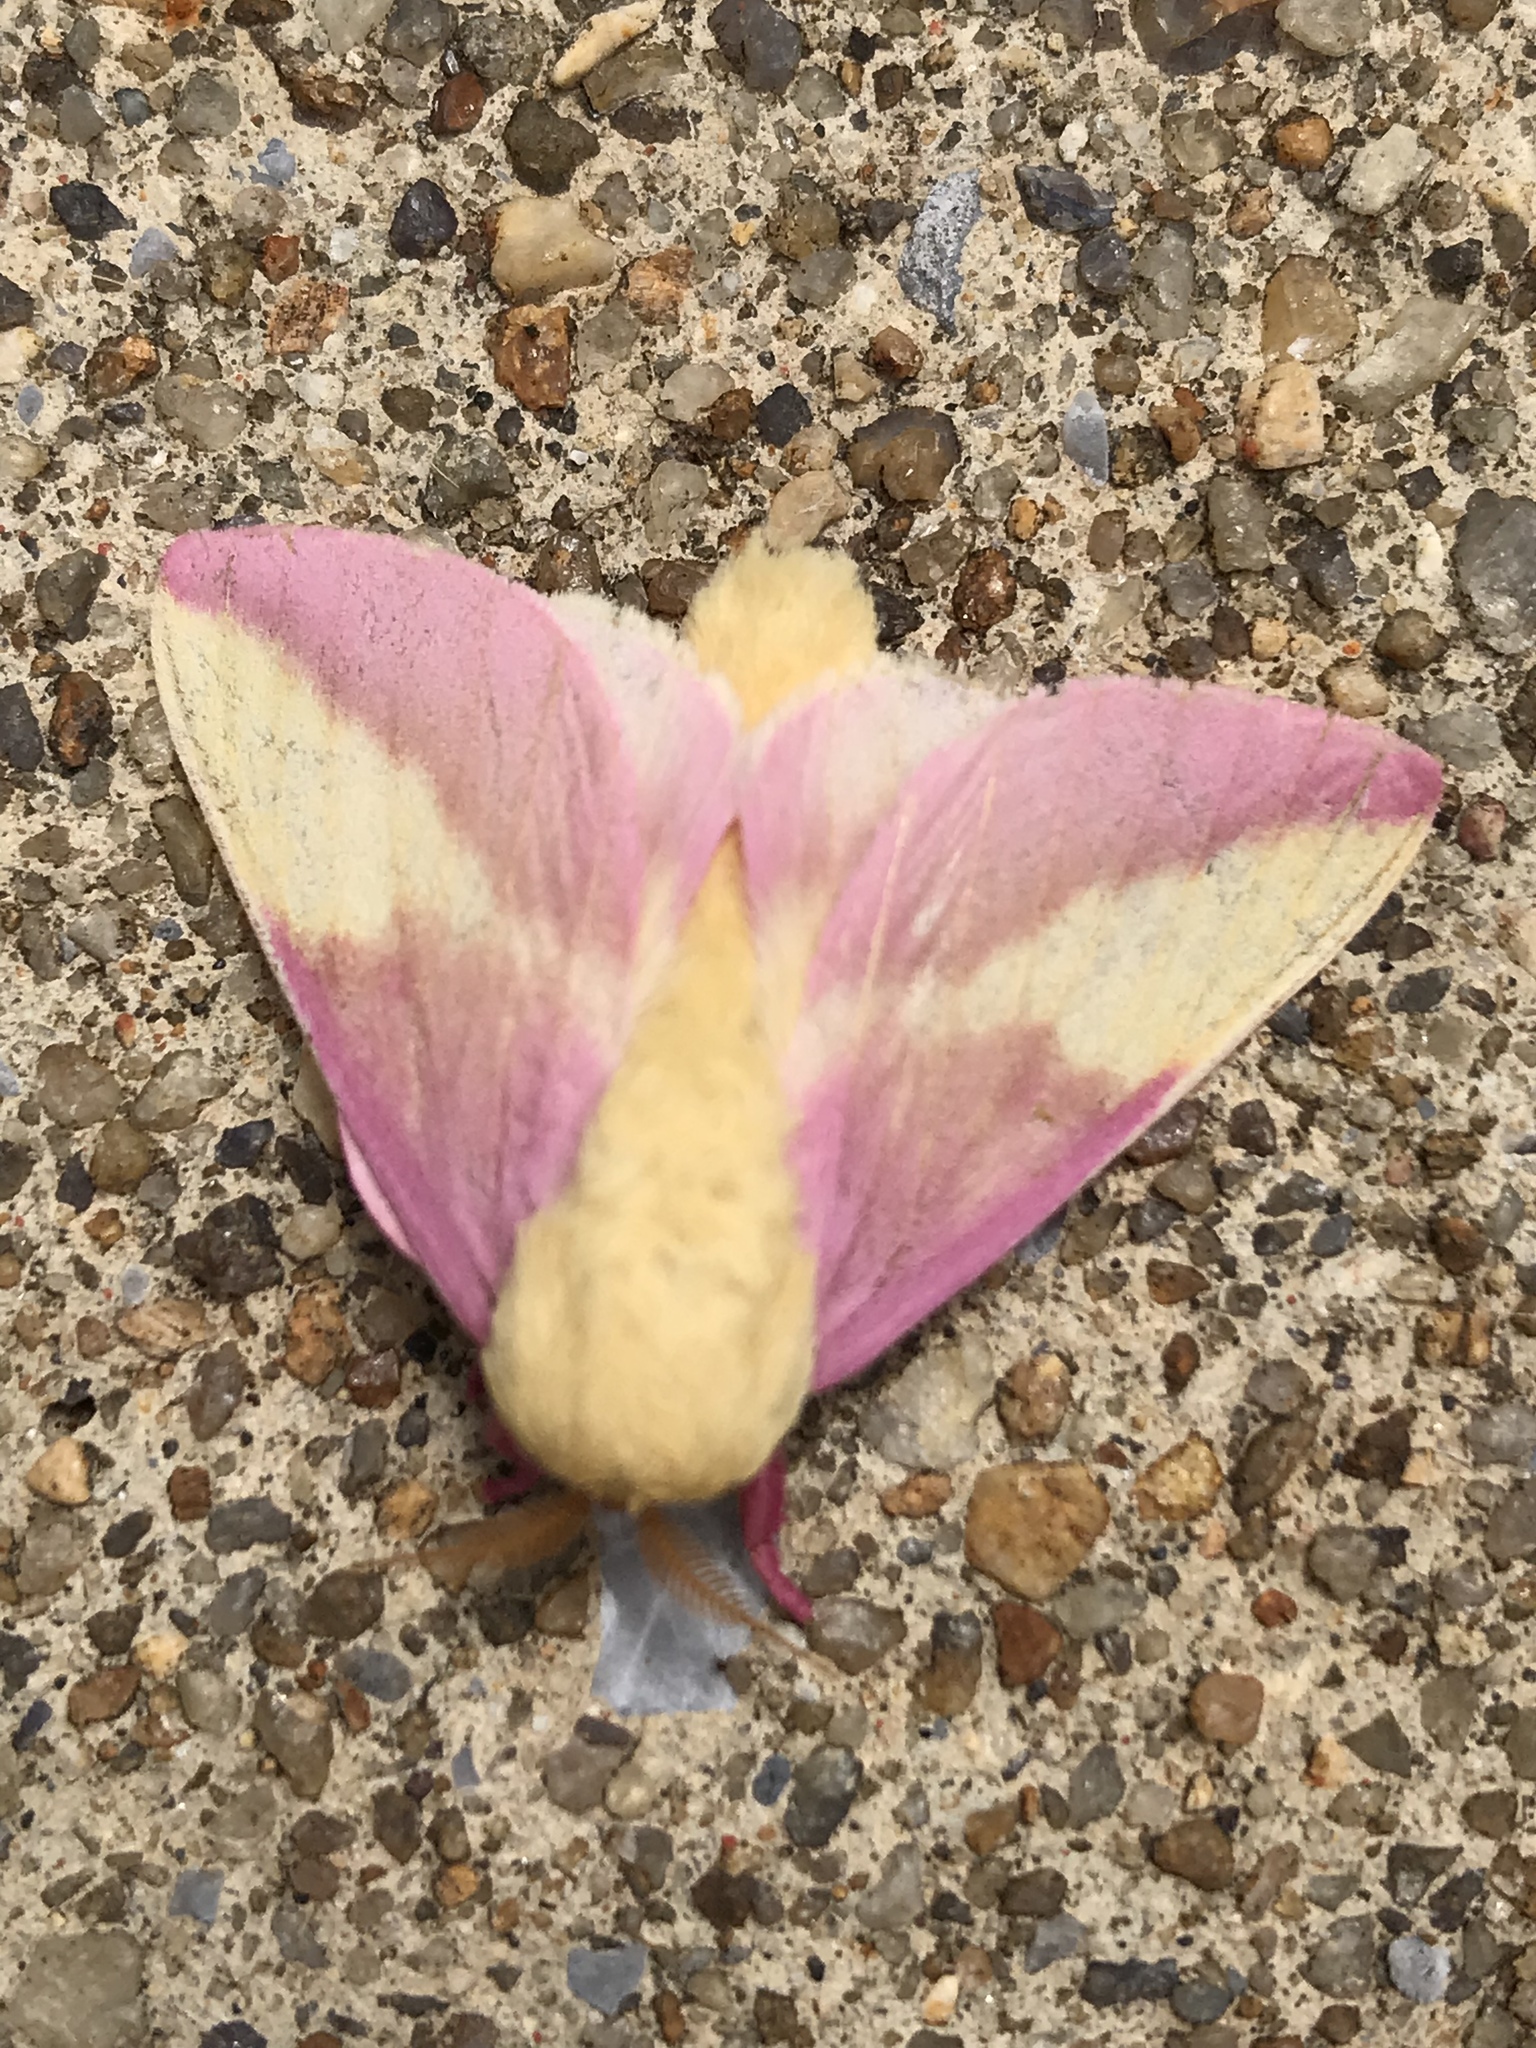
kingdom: Animalia
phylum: Arthropoda
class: Insecta
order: Lepidoptera
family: Saturniidae
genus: Dryocampa
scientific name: Dryocampa rubicunda
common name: Rosy maple moth
